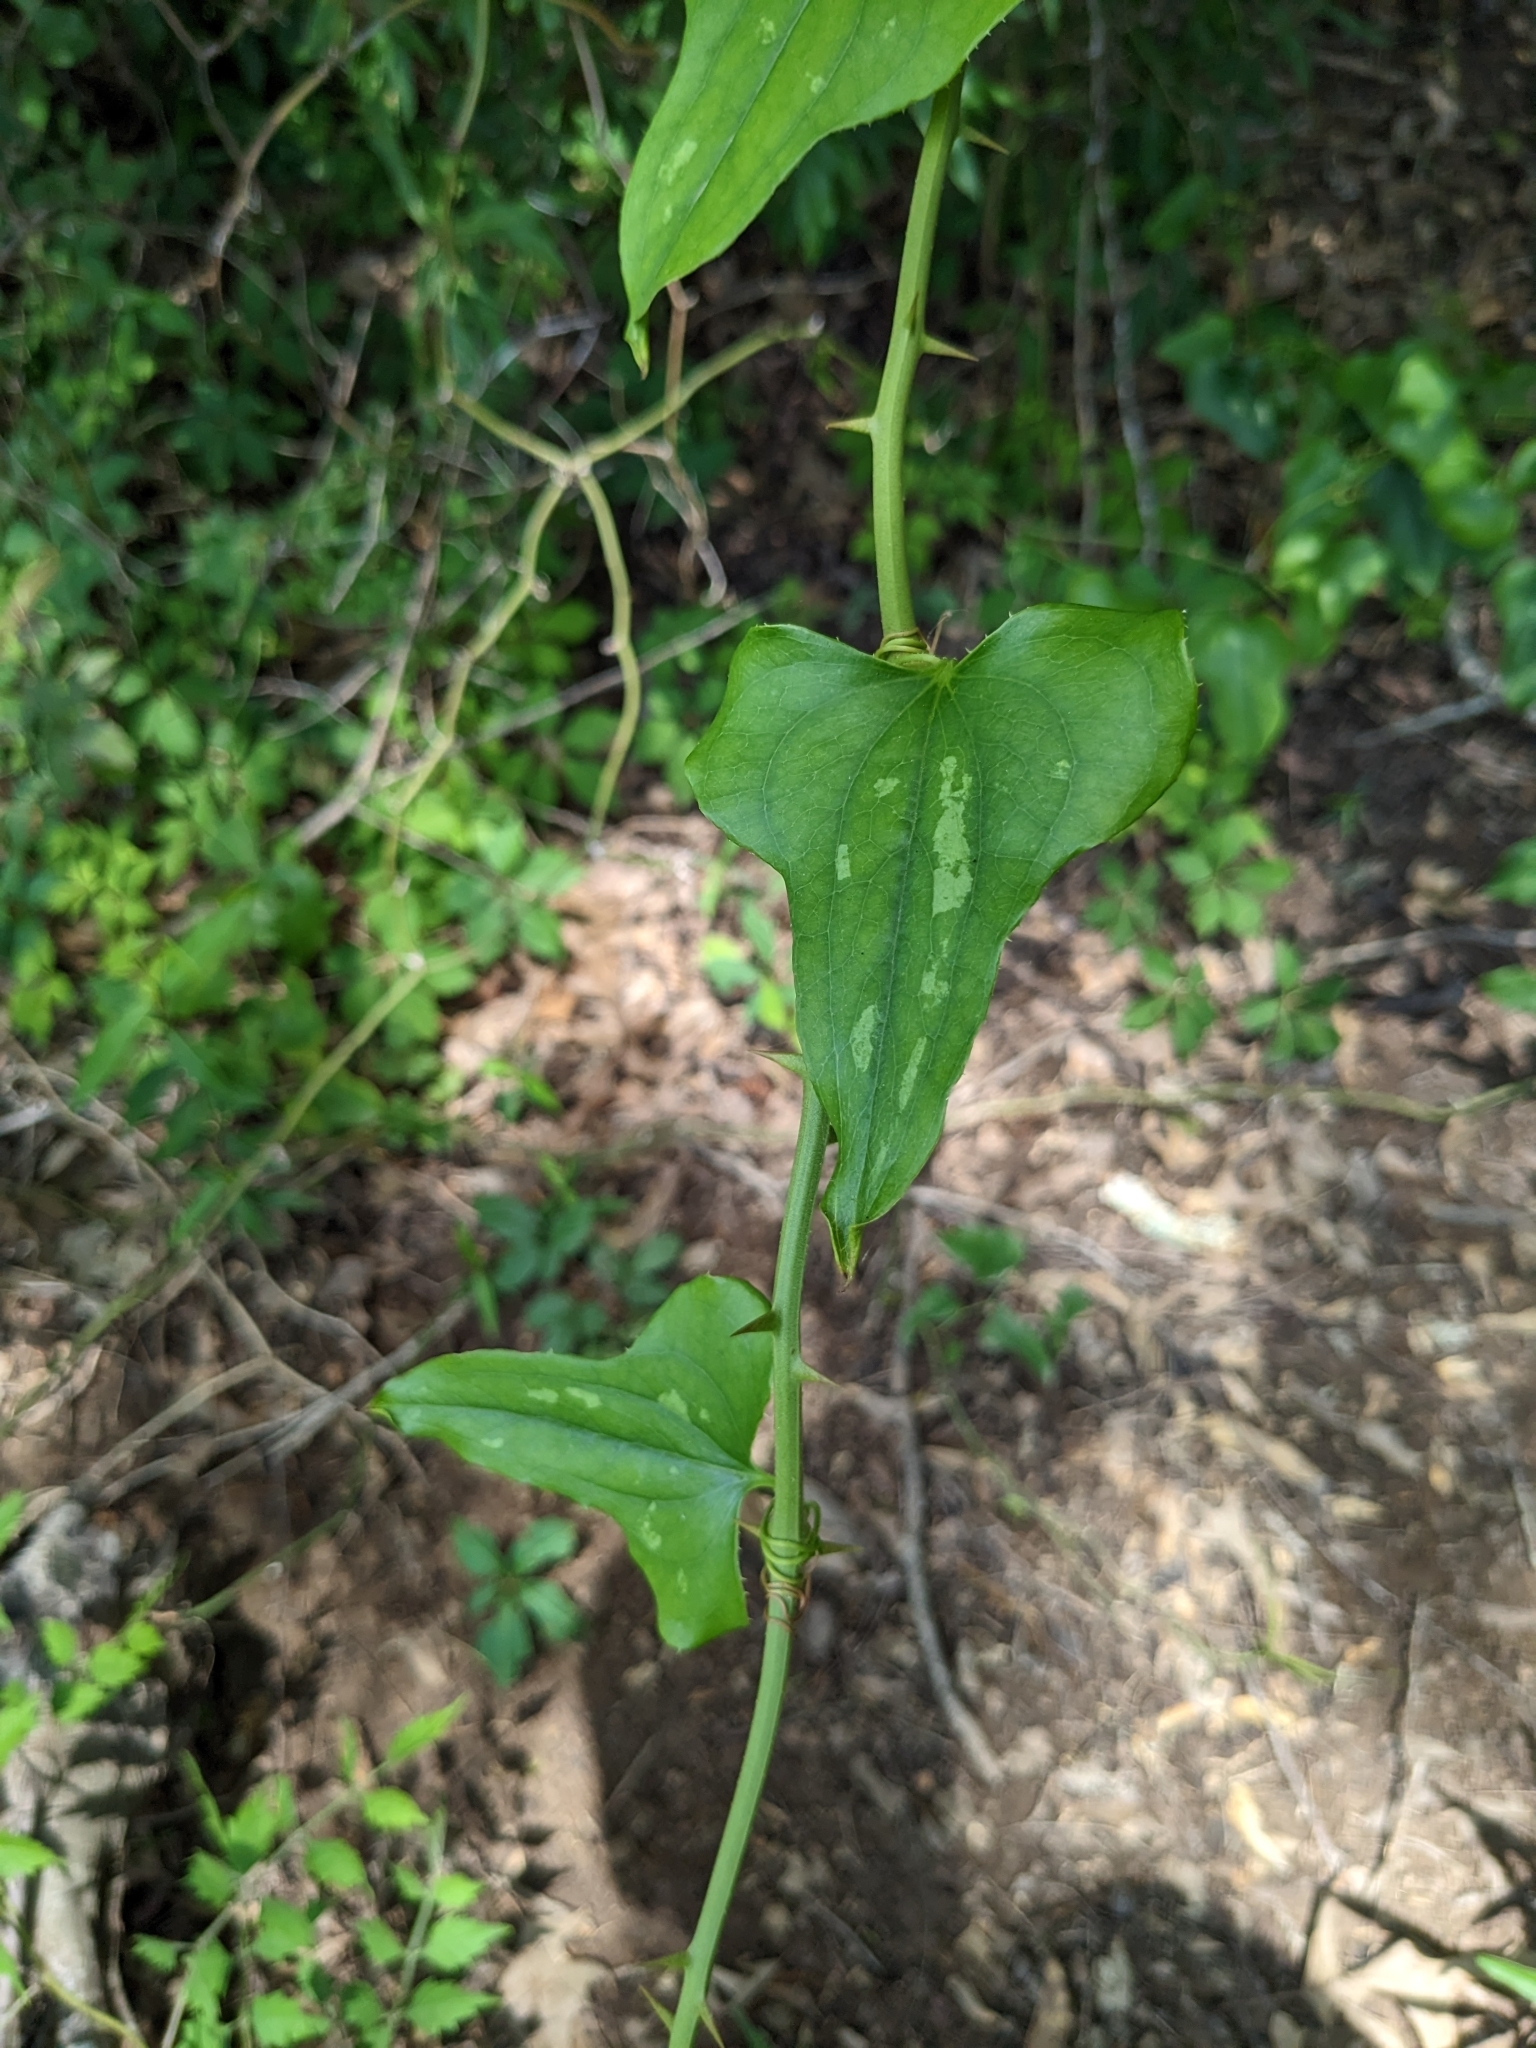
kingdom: Plantae
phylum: Tracheophyta
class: Liliopsida
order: Liliales
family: Smilacaceae
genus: Smilax
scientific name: Smilax bona-nox
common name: Catbrier
